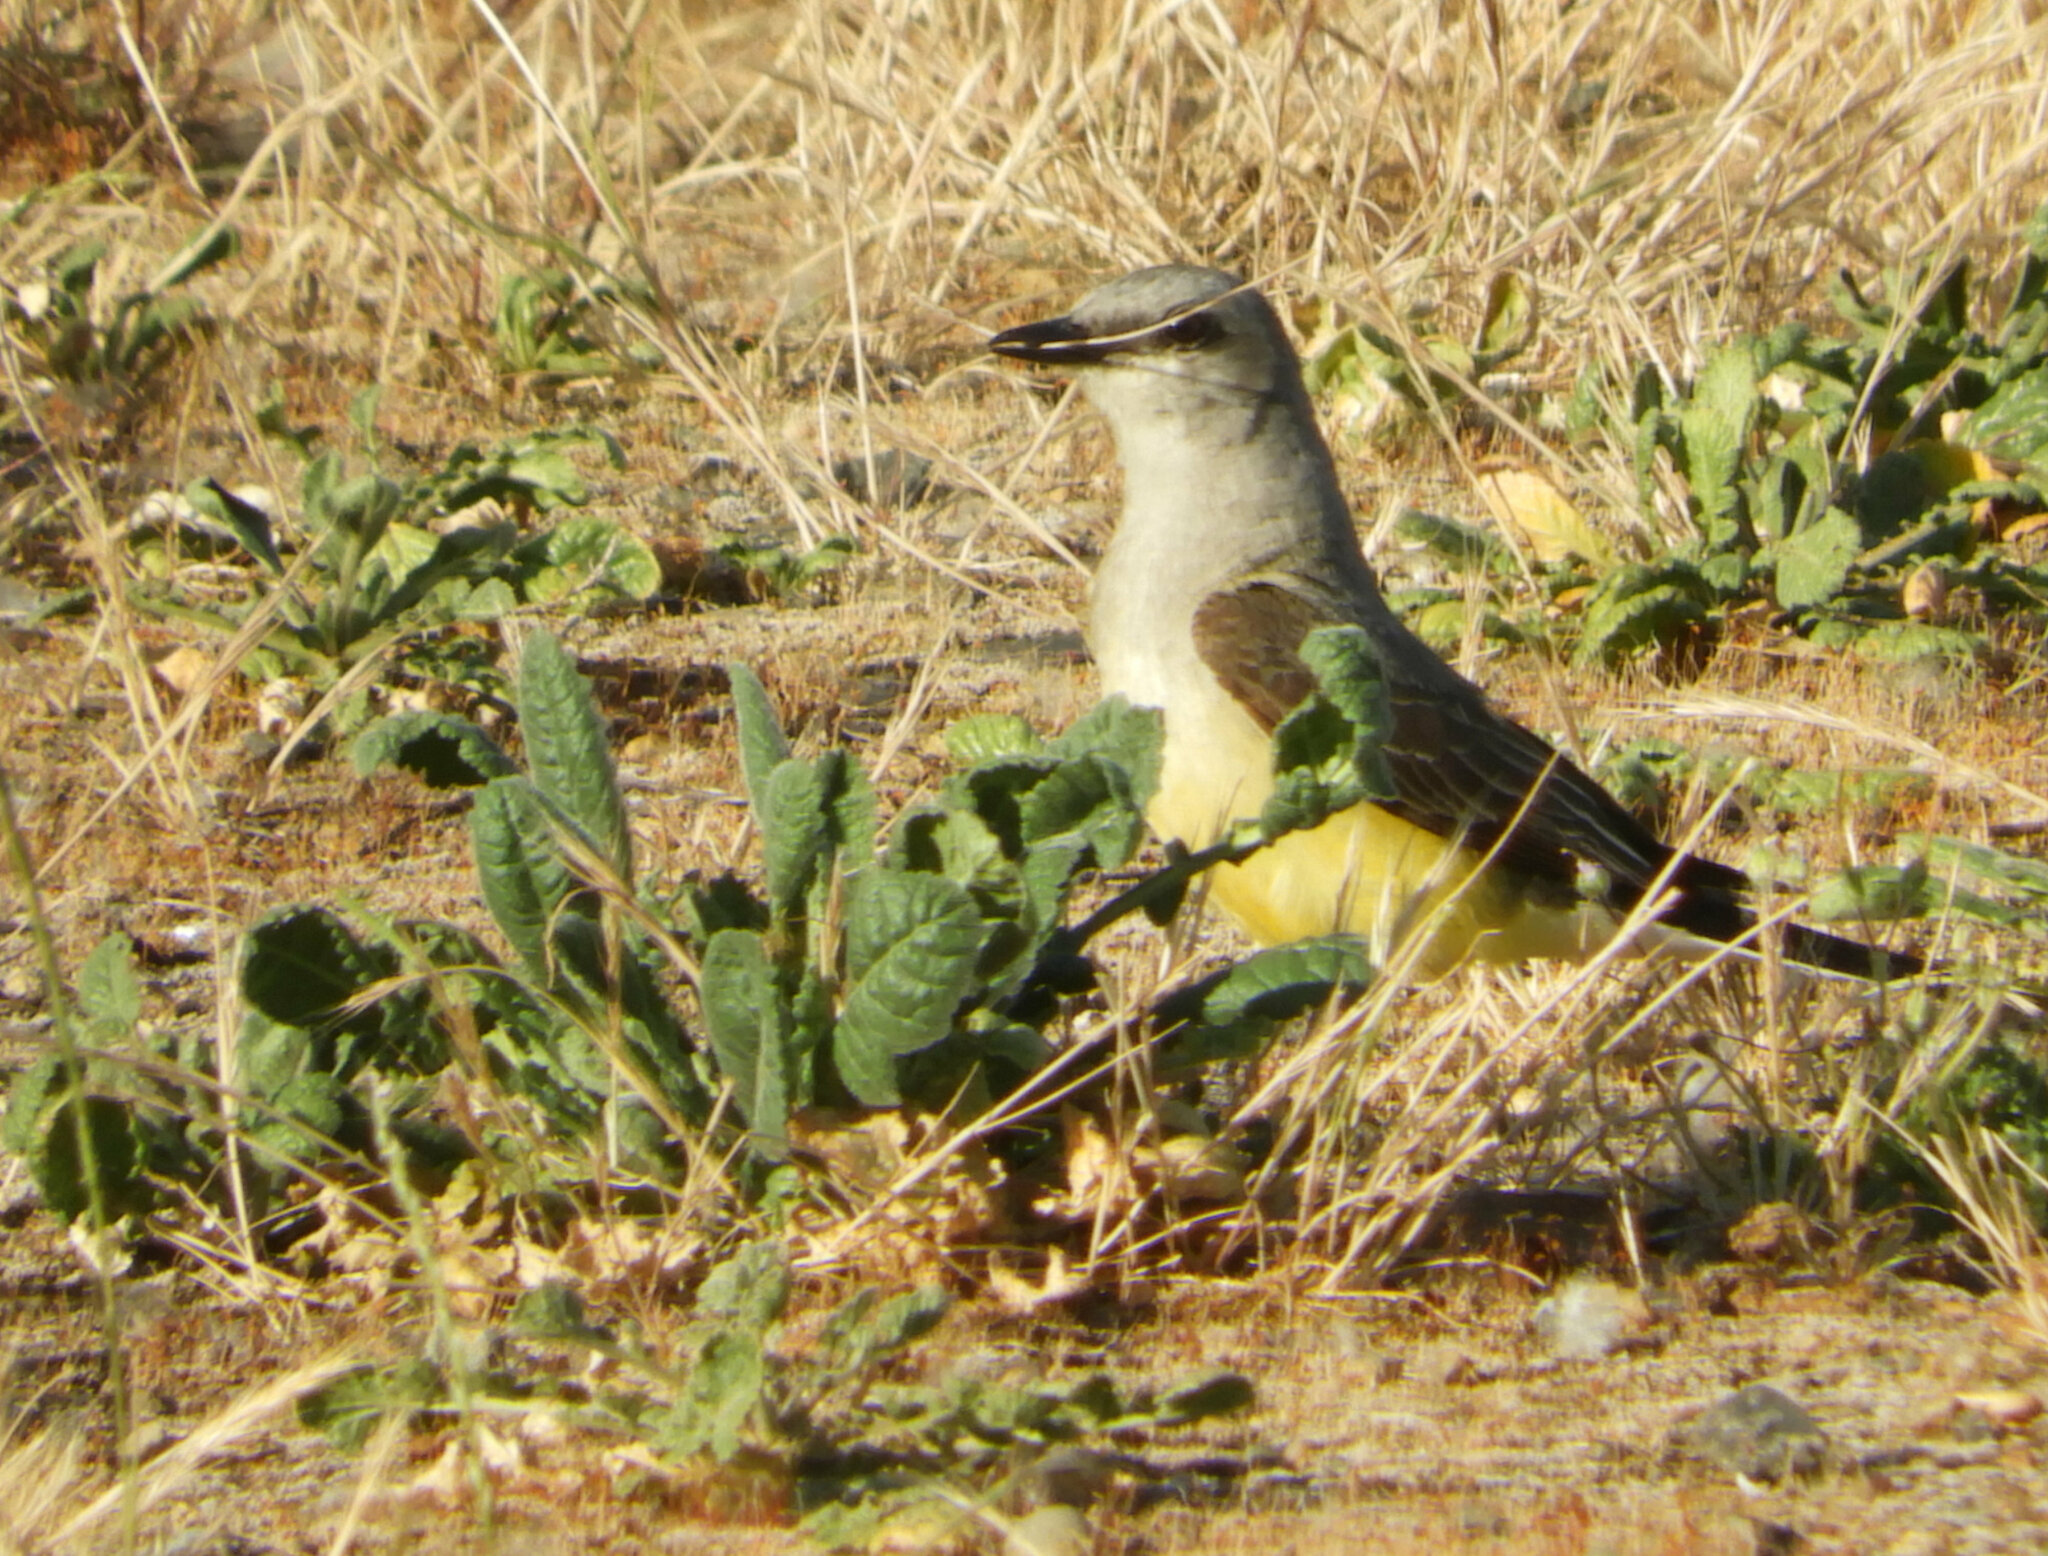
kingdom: Animalia
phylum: Chordata
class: Aves
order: Passeriformes
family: Tyrannidae
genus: Tyrannus
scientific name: Tyrannus verticalis
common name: Western kingbird
